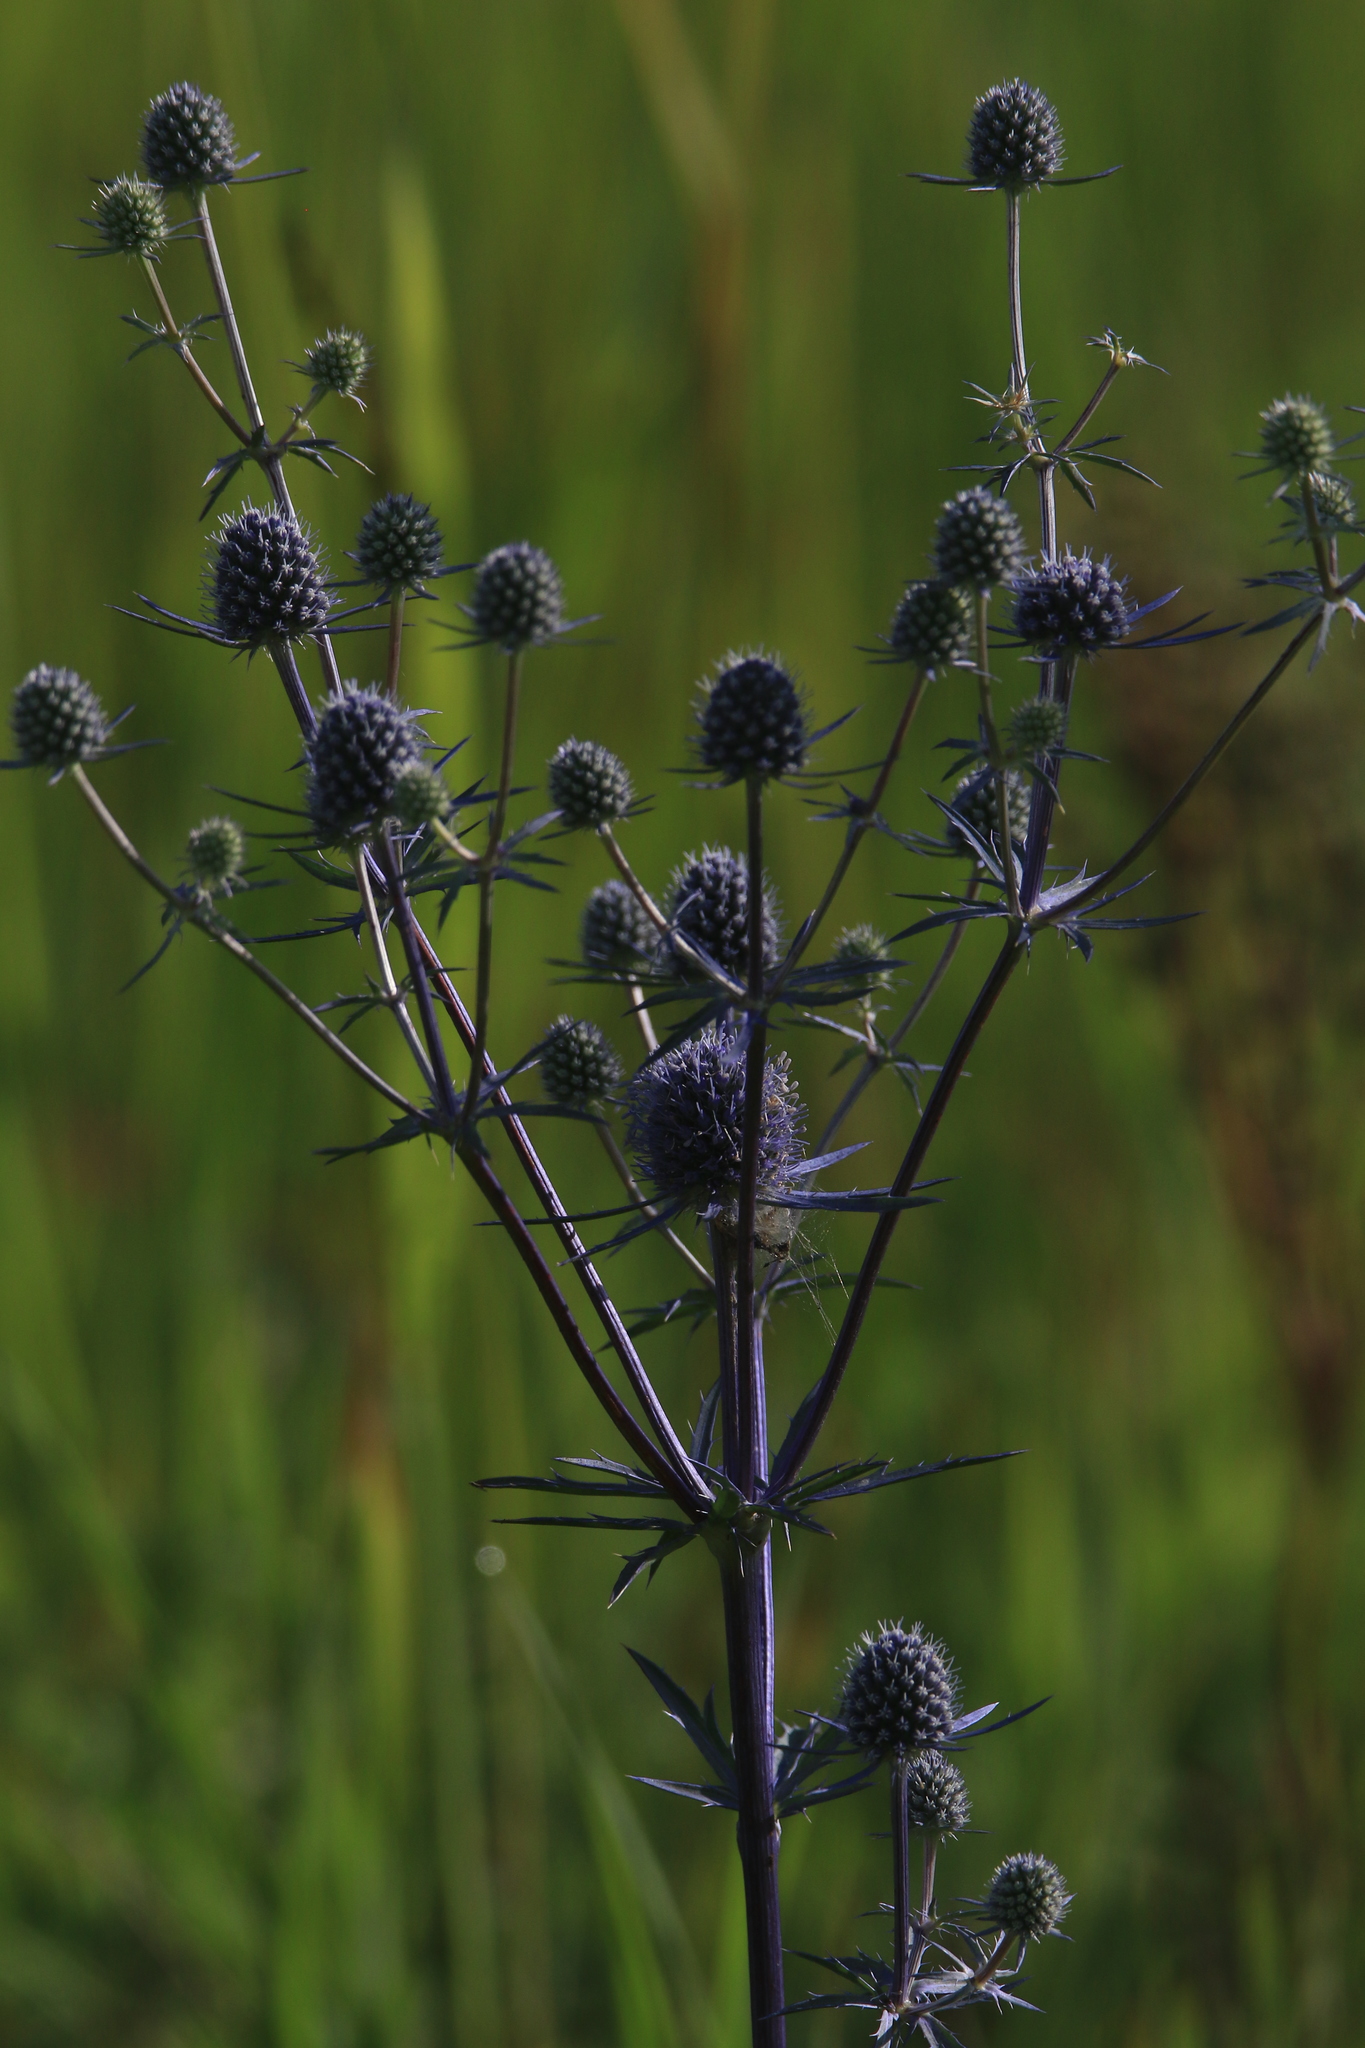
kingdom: Plantae
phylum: Tracheophyta
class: Magnoliopsida
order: Apiales
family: Apiaceae
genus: Eryngium
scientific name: Eryngium planum
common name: Blue eryngo
